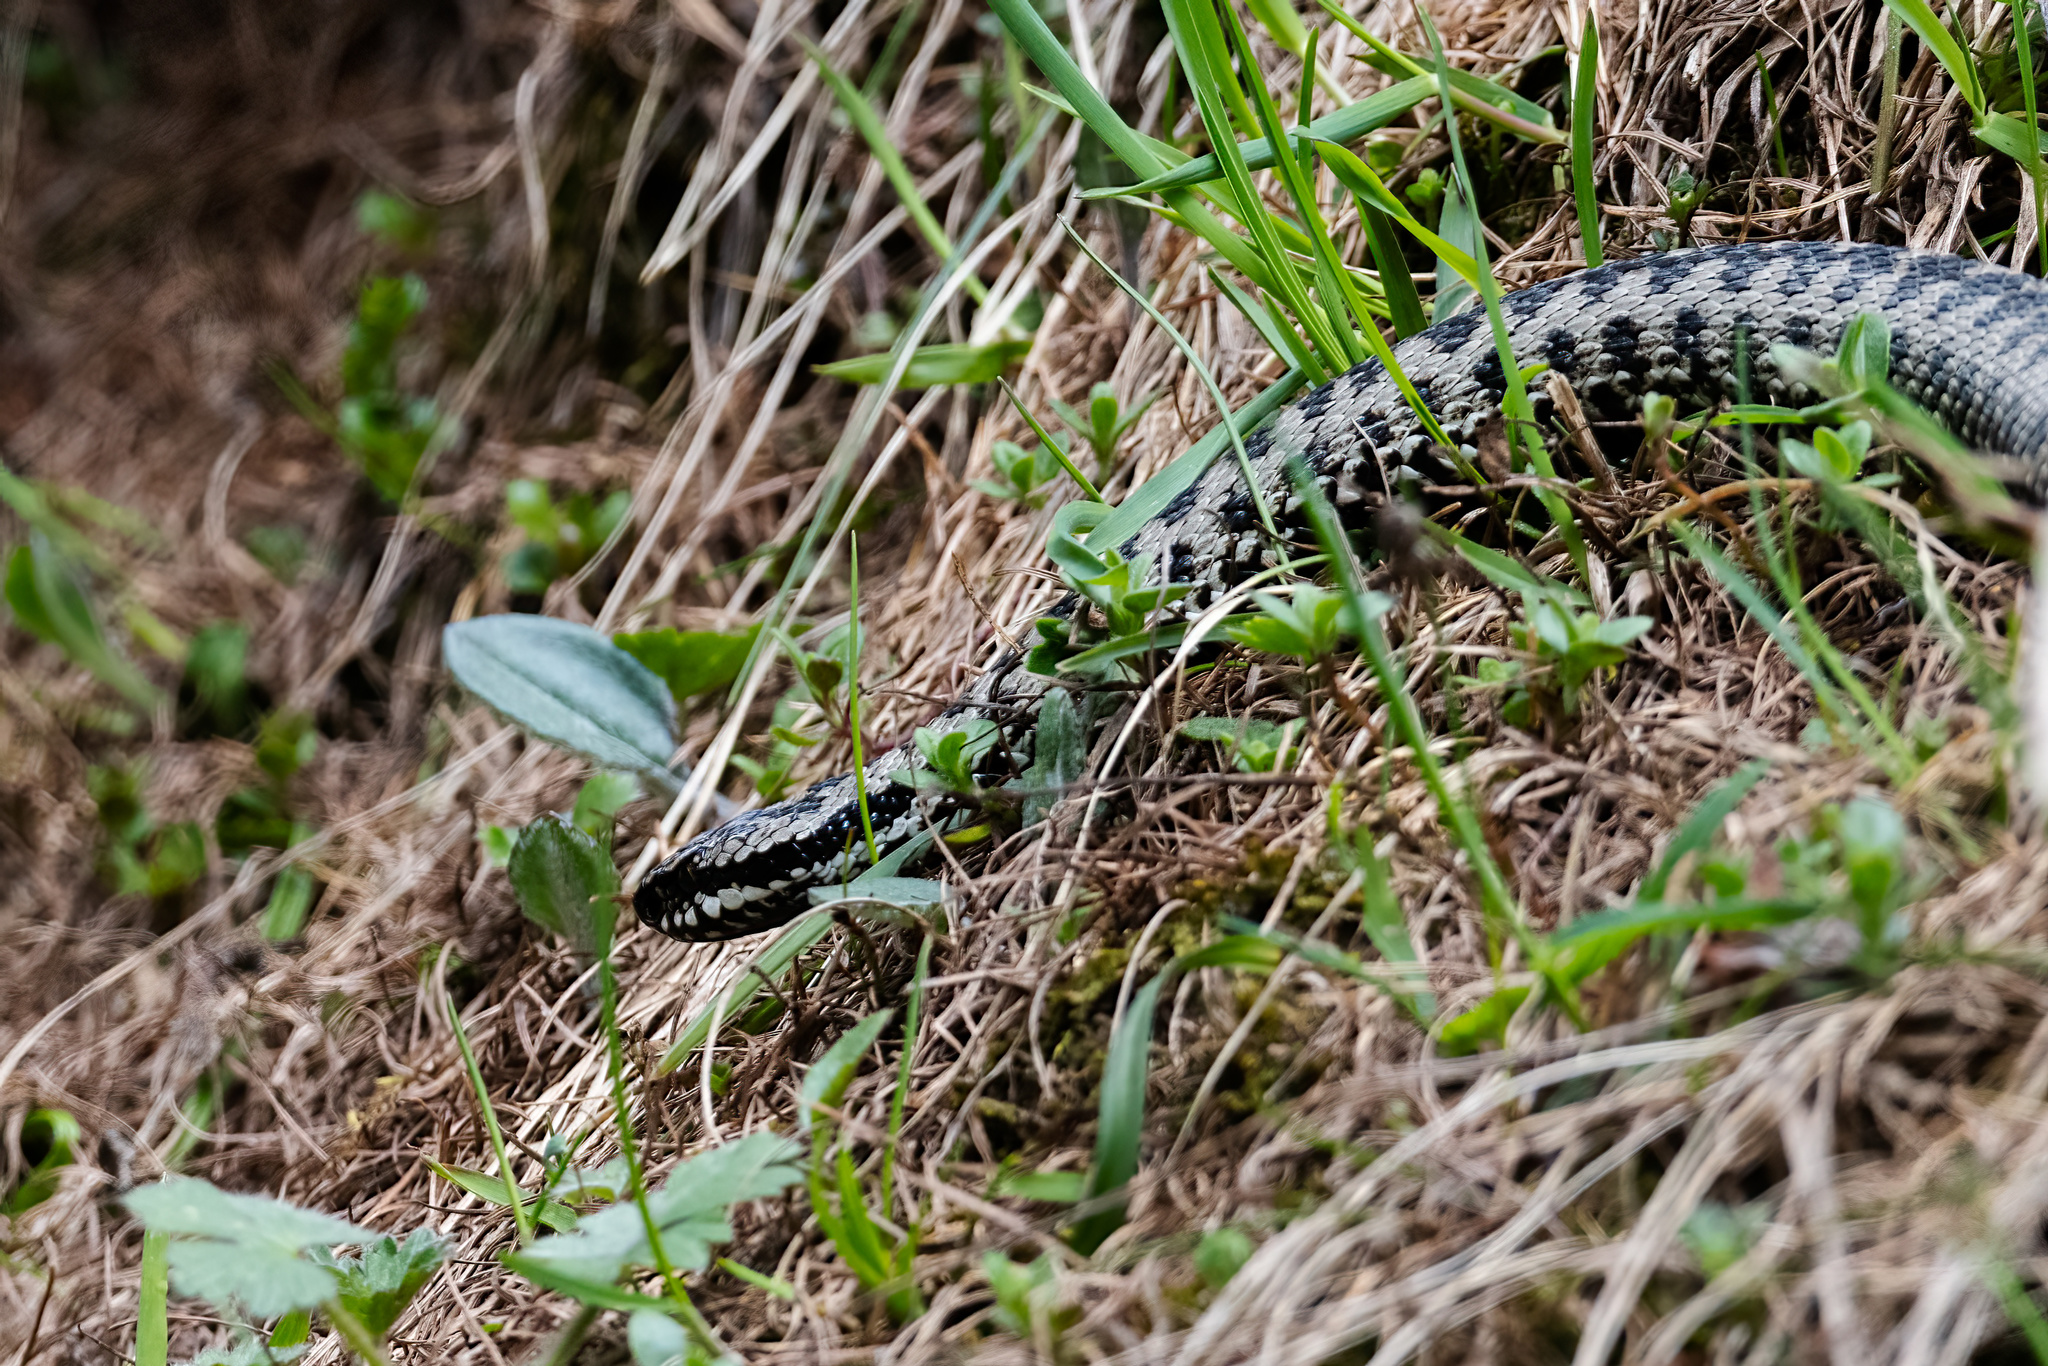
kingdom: Animalia
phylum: Chordata
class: Squamata
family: Viperidae
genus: Vipera
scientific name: Vipera berus
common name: Adder
